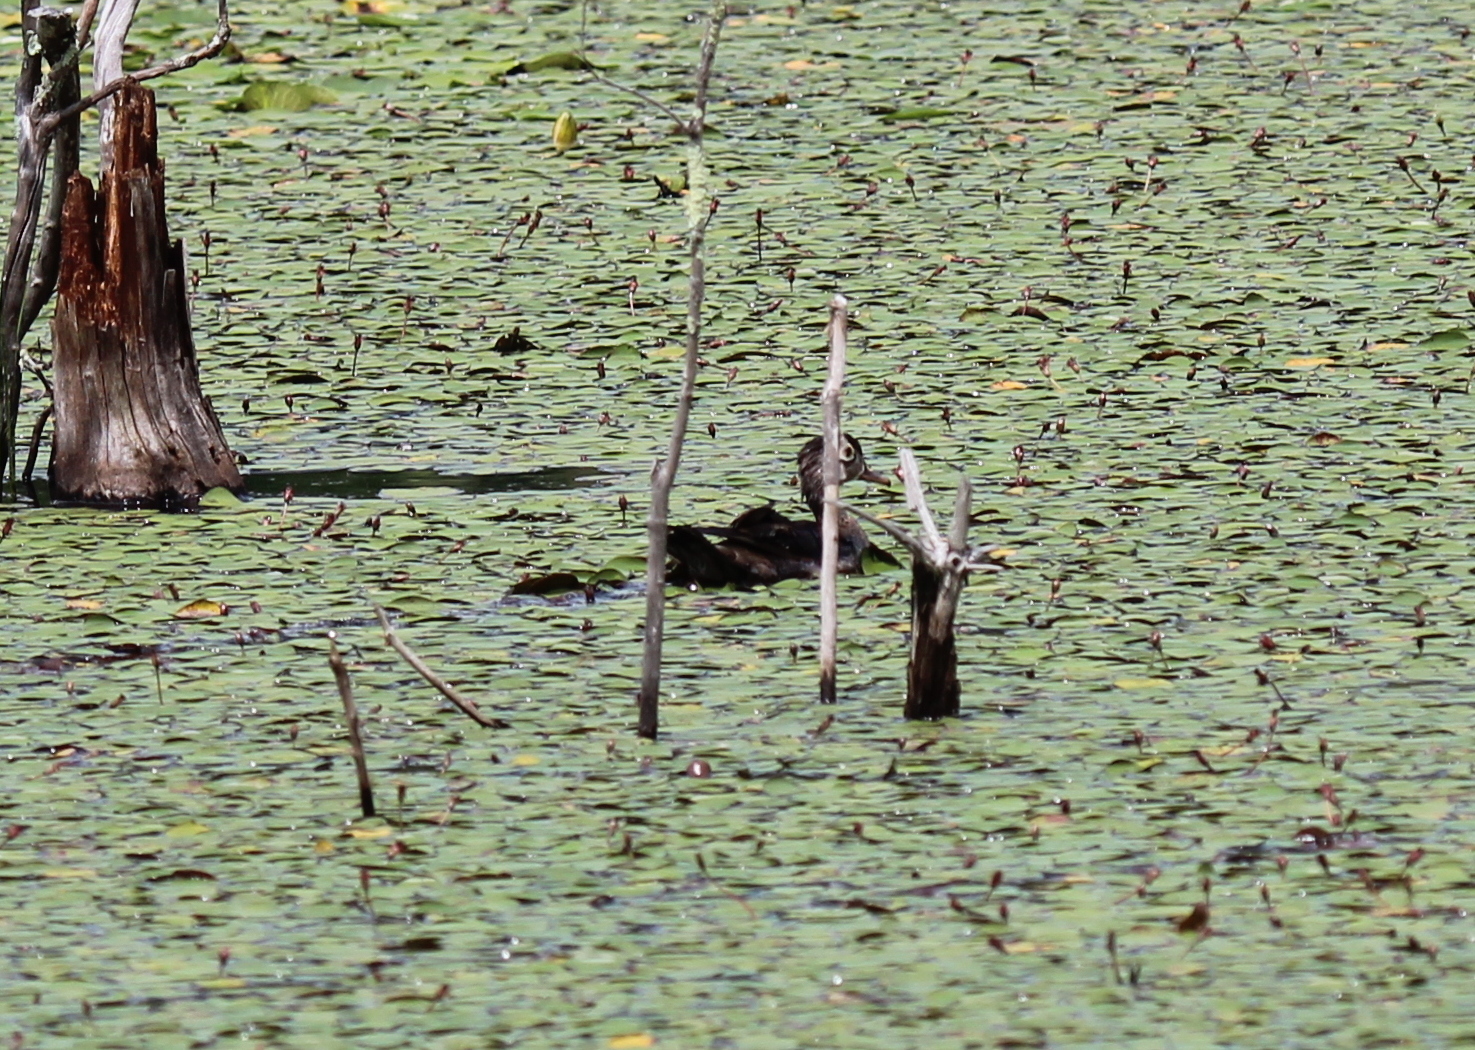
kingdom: Animalia
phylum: Chordata
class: Aves
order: Anseriformes
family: Anatidae
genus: Aix
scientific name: Aix sponsa
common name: Wood duck
